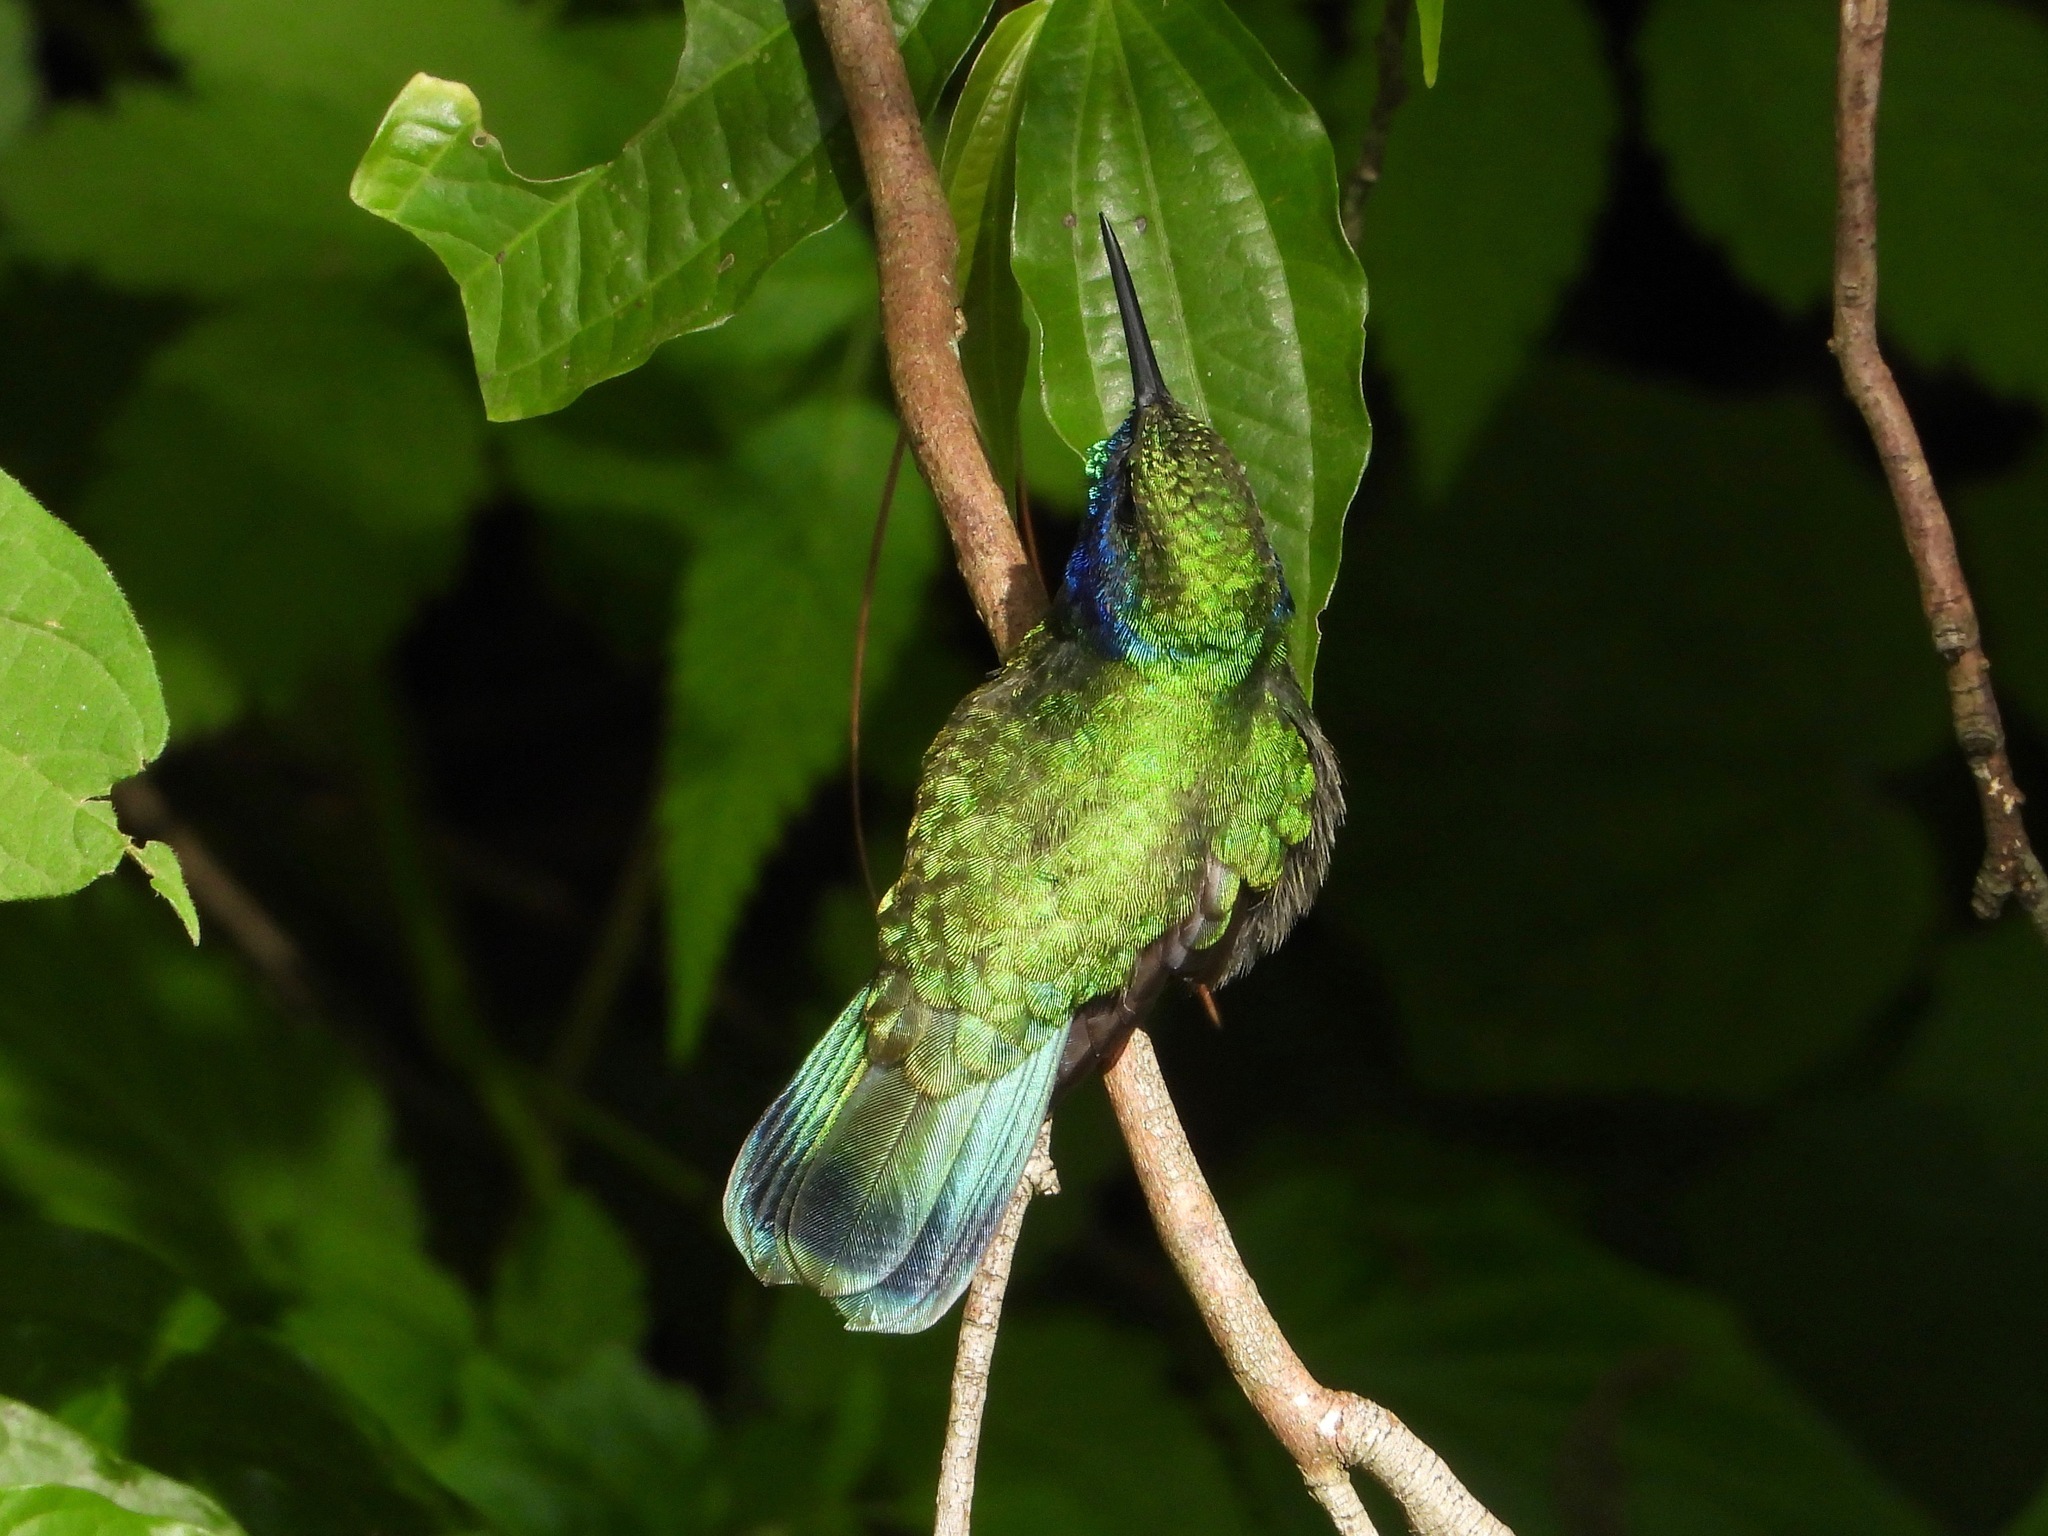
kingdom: Animalia
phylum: Chordata
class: Aves
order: Apodiformes
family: Trochilidae
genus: Colibri
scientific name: Colibri thalassinus
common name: Green violetear
